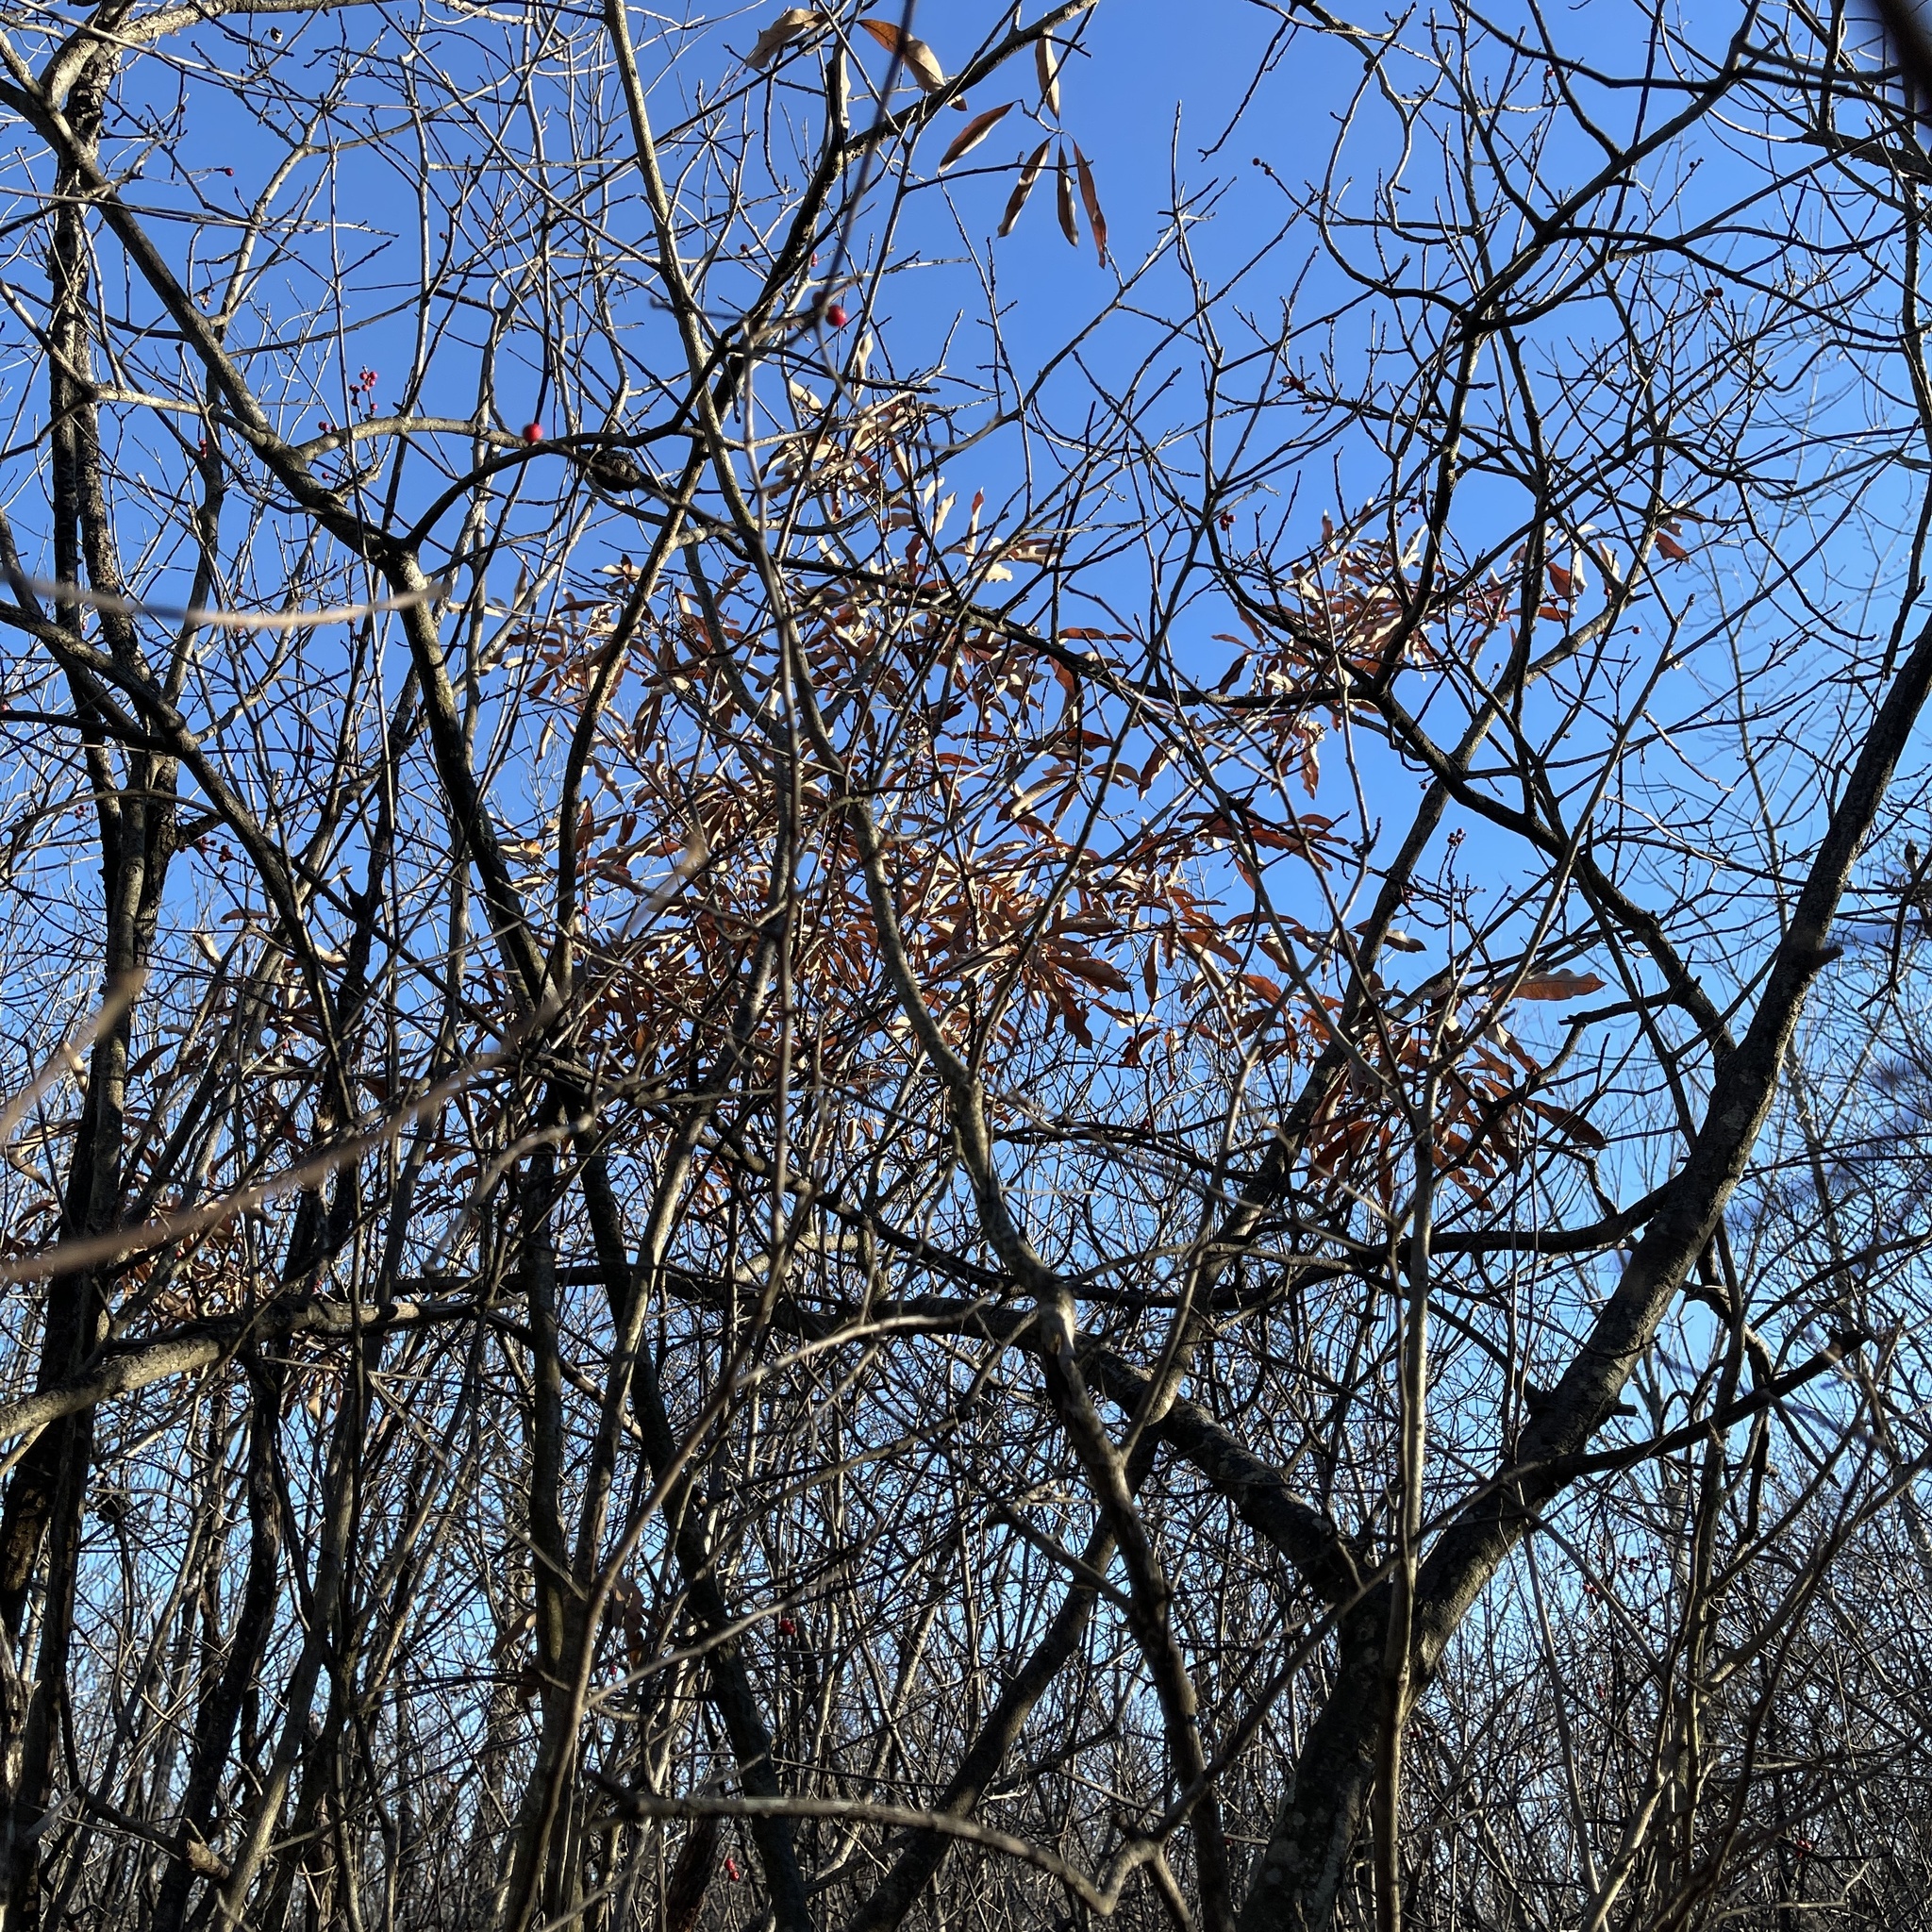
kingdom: Plantae
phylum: Tracheophyta
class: Magnoliopsida
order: Fagales
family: Fagaceae
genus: Quercus
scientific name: Quercus imbricaria
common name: Shingle oak
